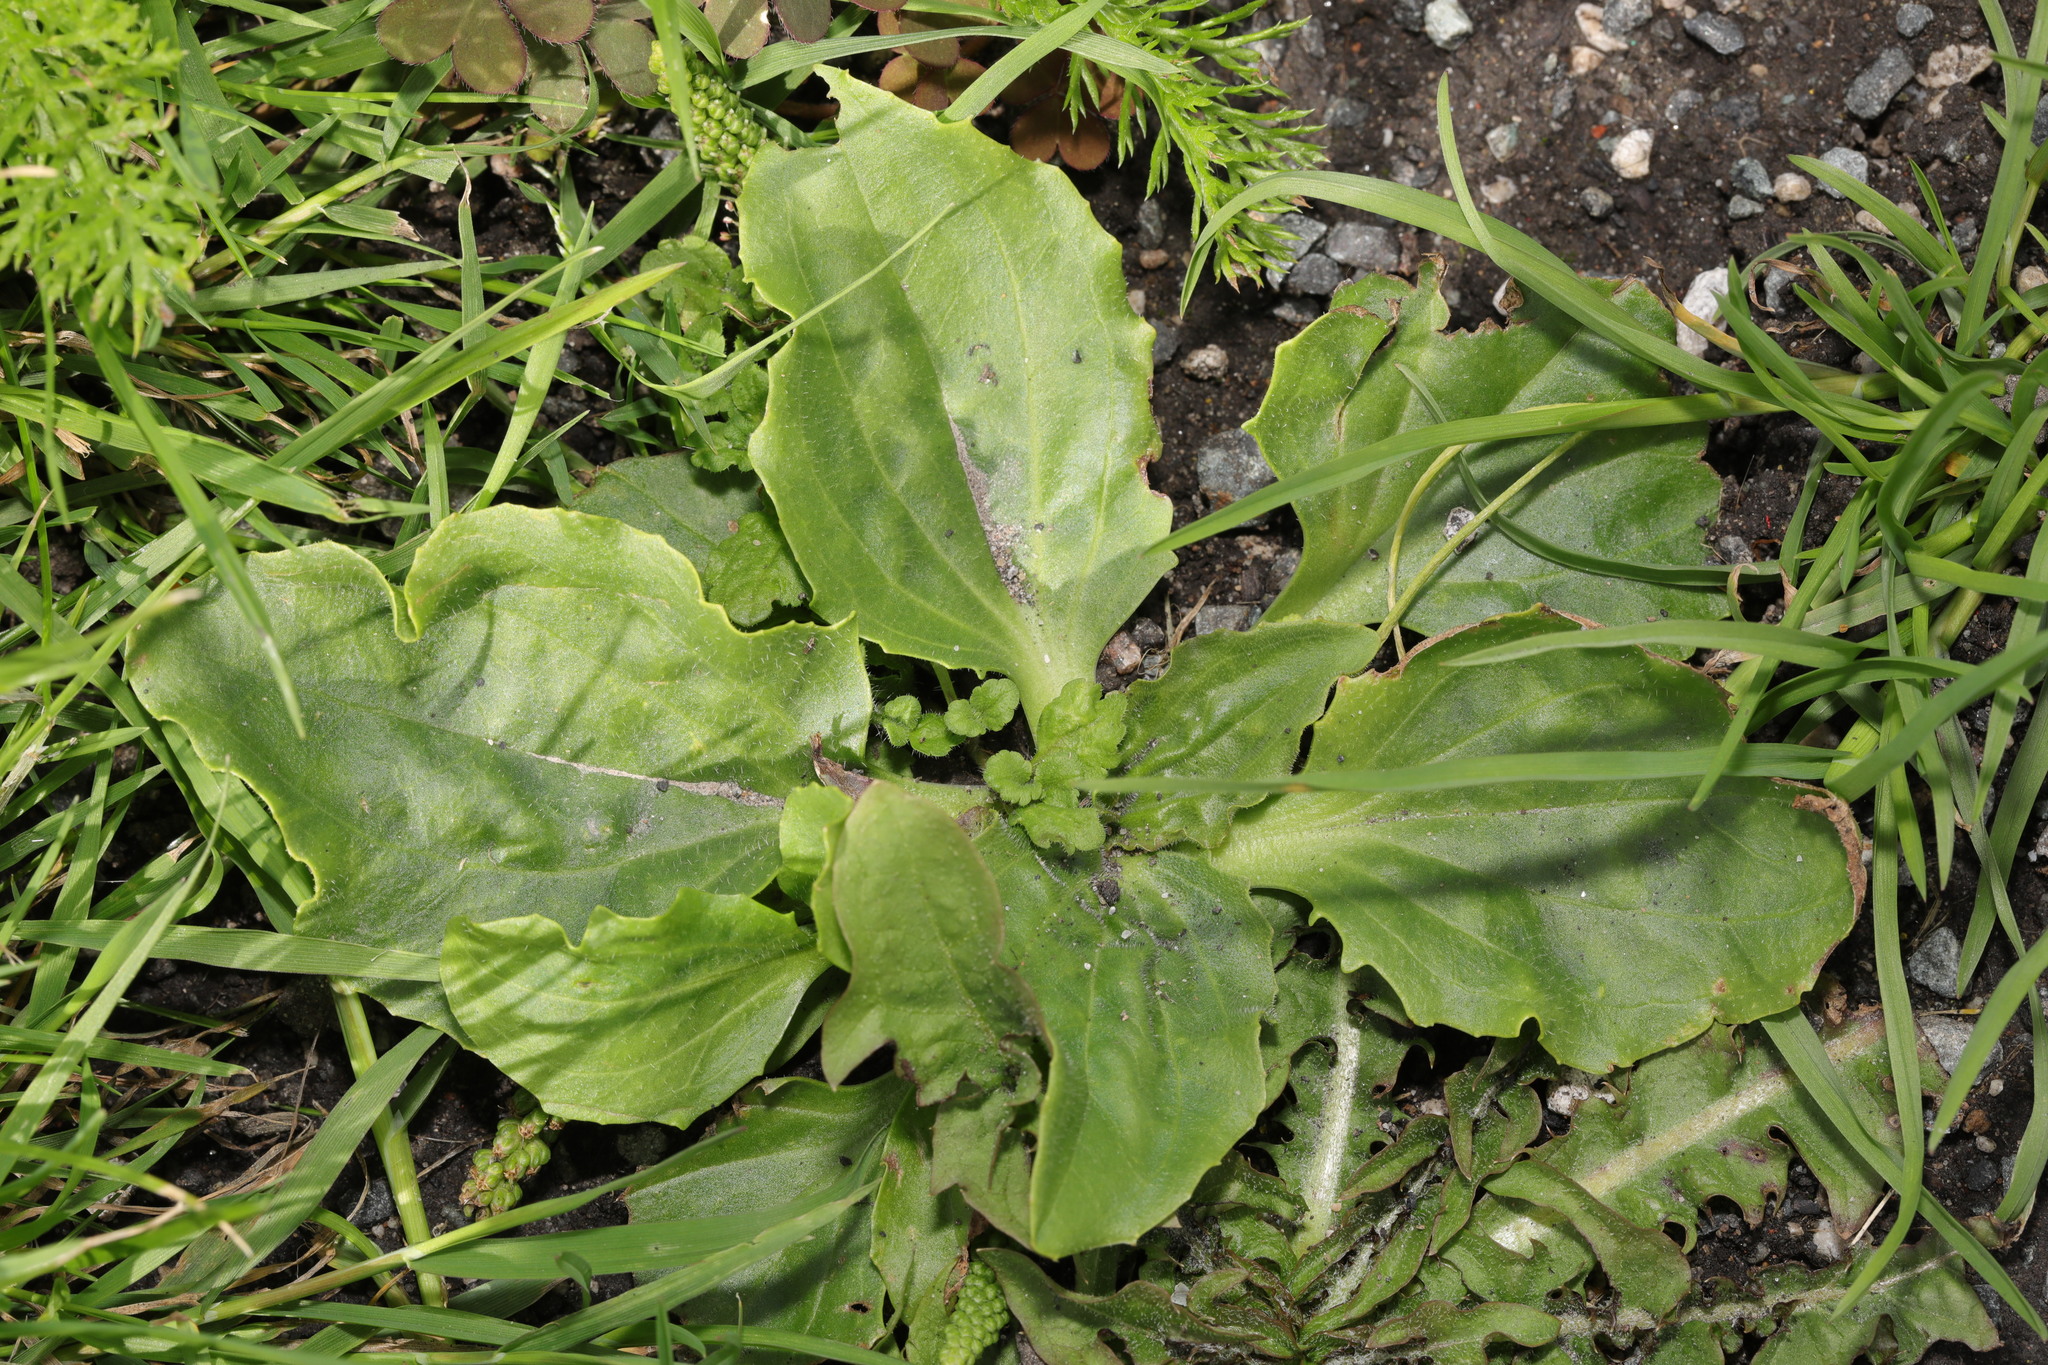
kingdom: Plantae
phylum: Tracheophyta
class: Magnoliopsida
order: Lamiales
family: Plantaginaceae
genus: Plantago
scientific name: Plantago major
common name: Common plantain
